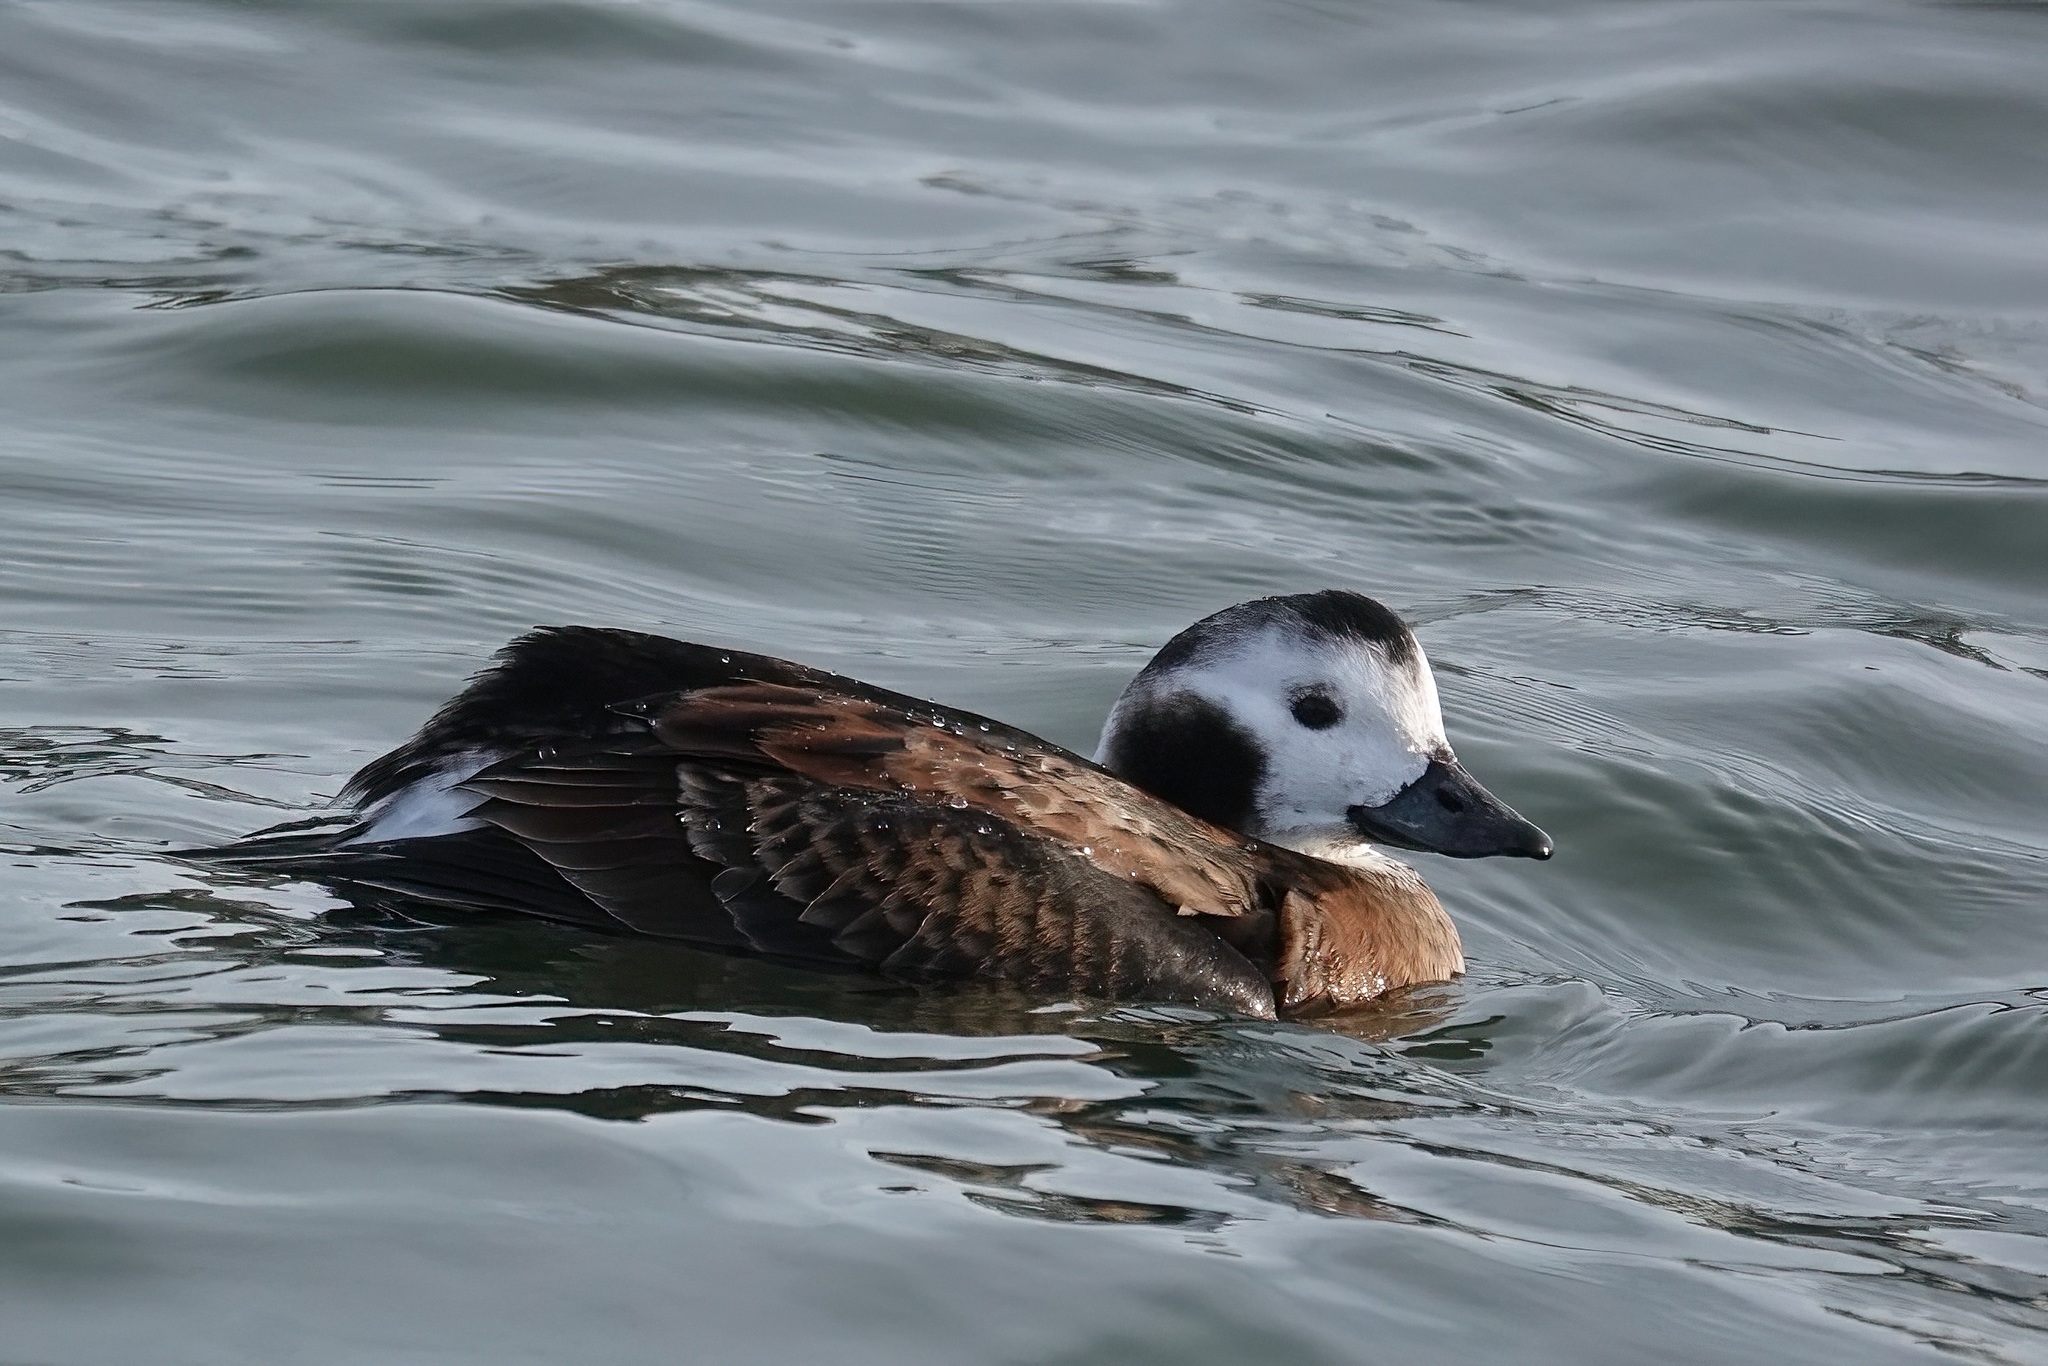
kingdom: Animalia
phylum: Chordata
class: Aves
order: Anseriformes
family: Anatidae
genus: Clangula
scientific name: Clangula hyemalis
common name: Long-tailed duck
